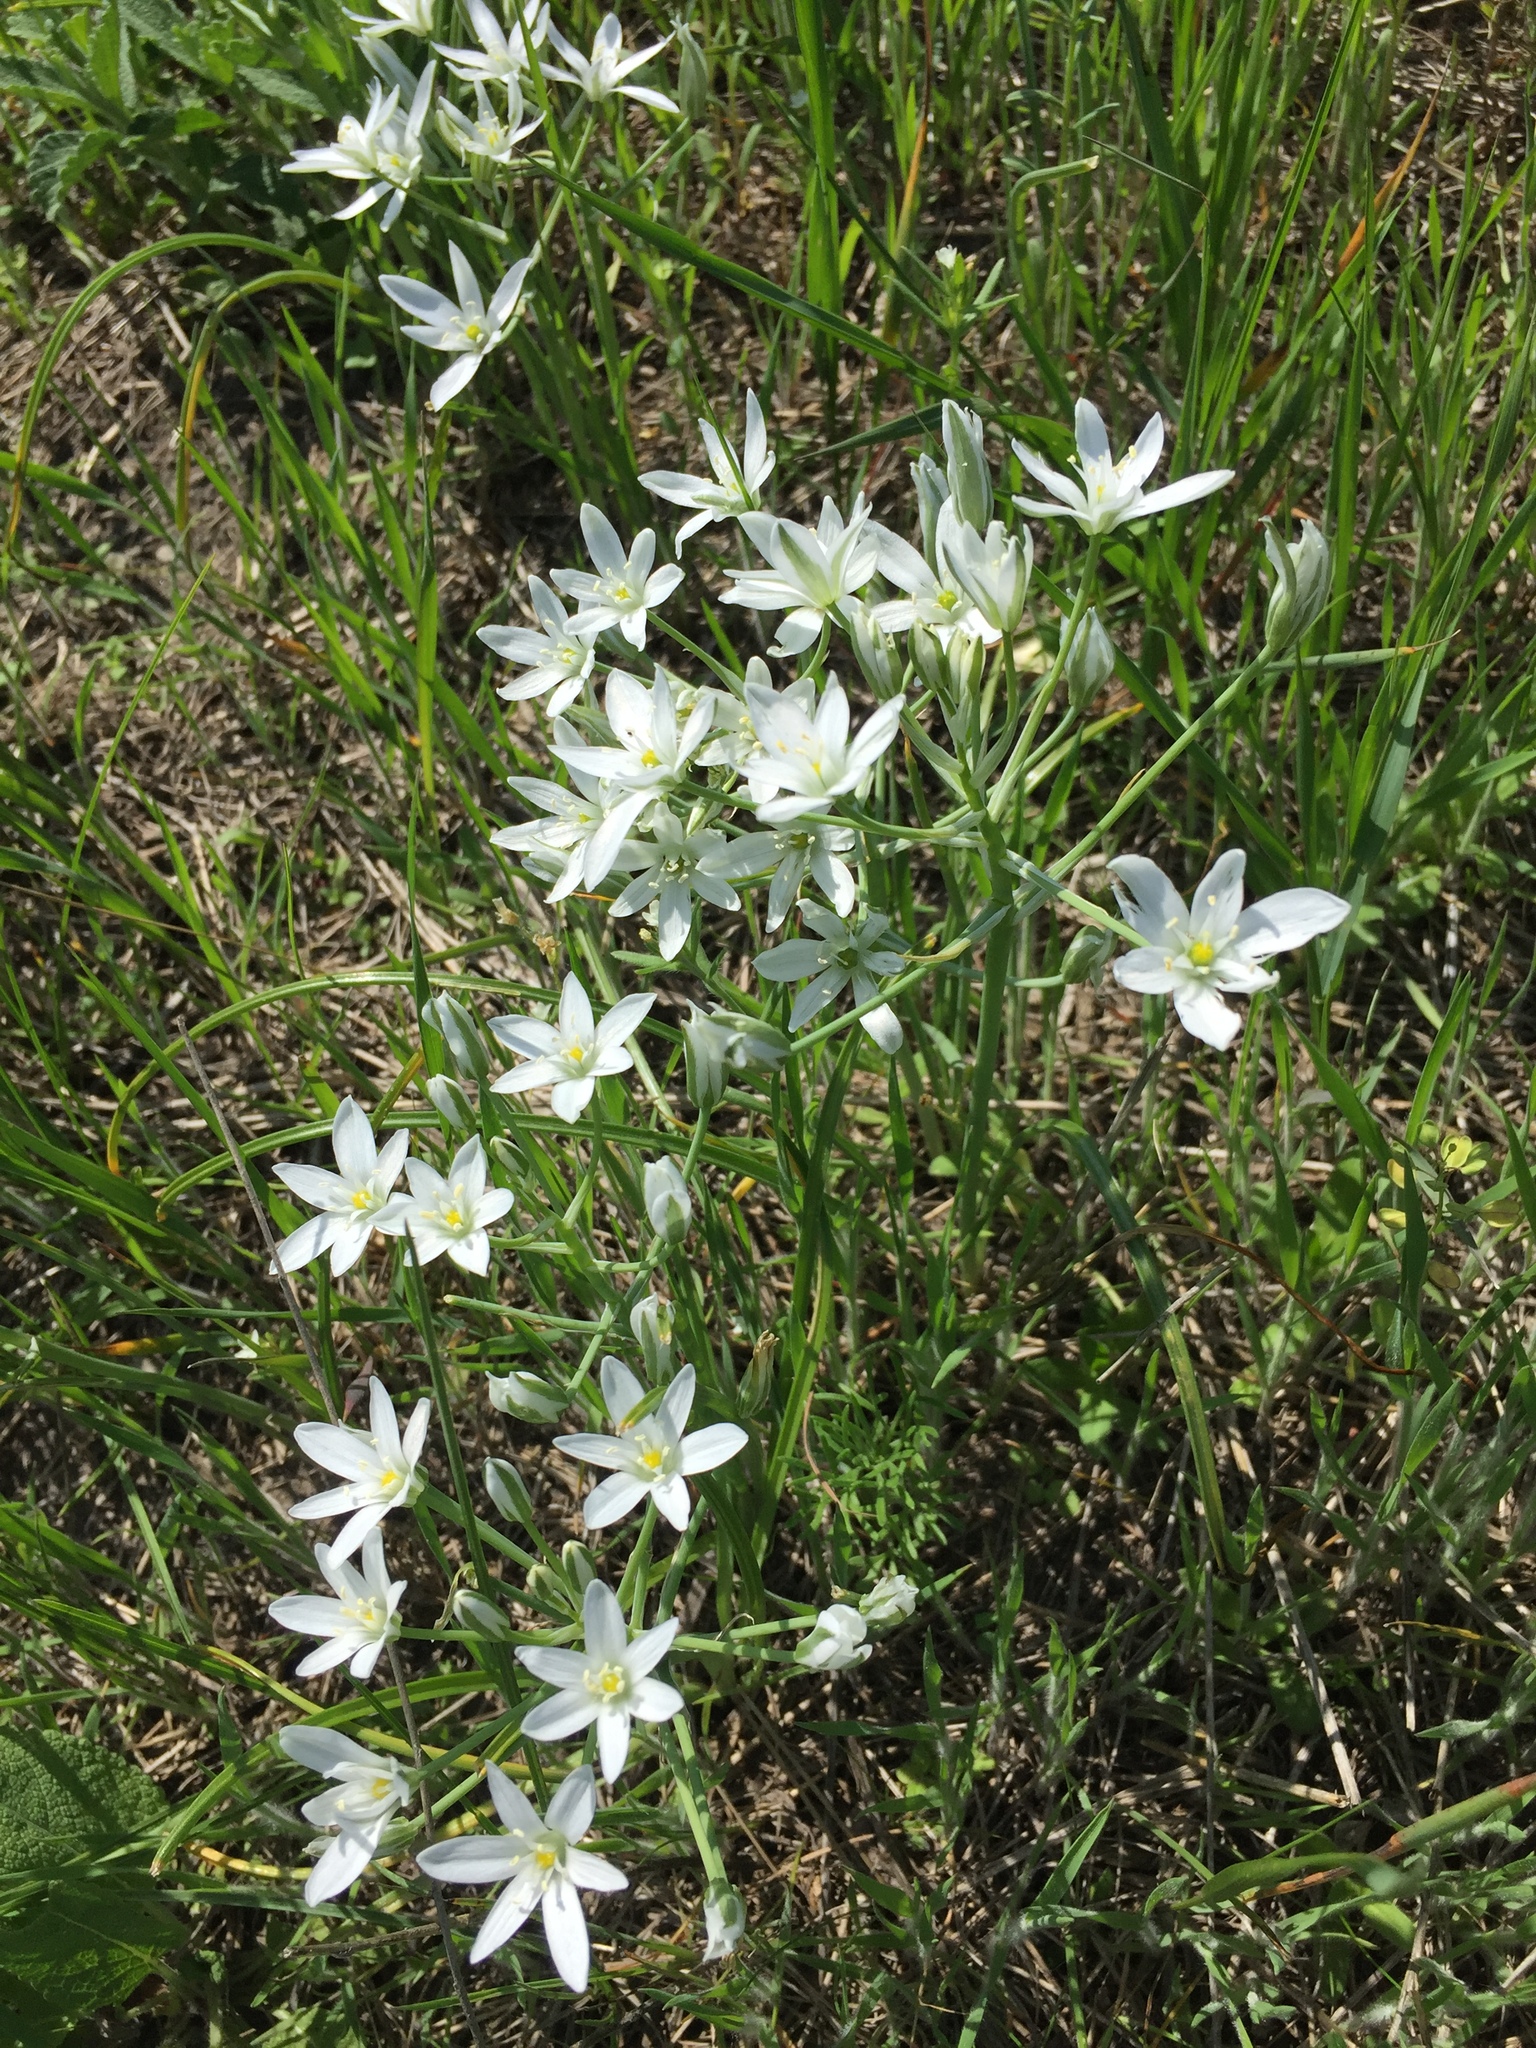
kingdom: Plantae
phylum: Tracheophyta
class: Liliopsida
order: Asparagales
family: Asparagaceae
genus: Ornithogalum
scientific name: Ornithogalum orthophyllum
